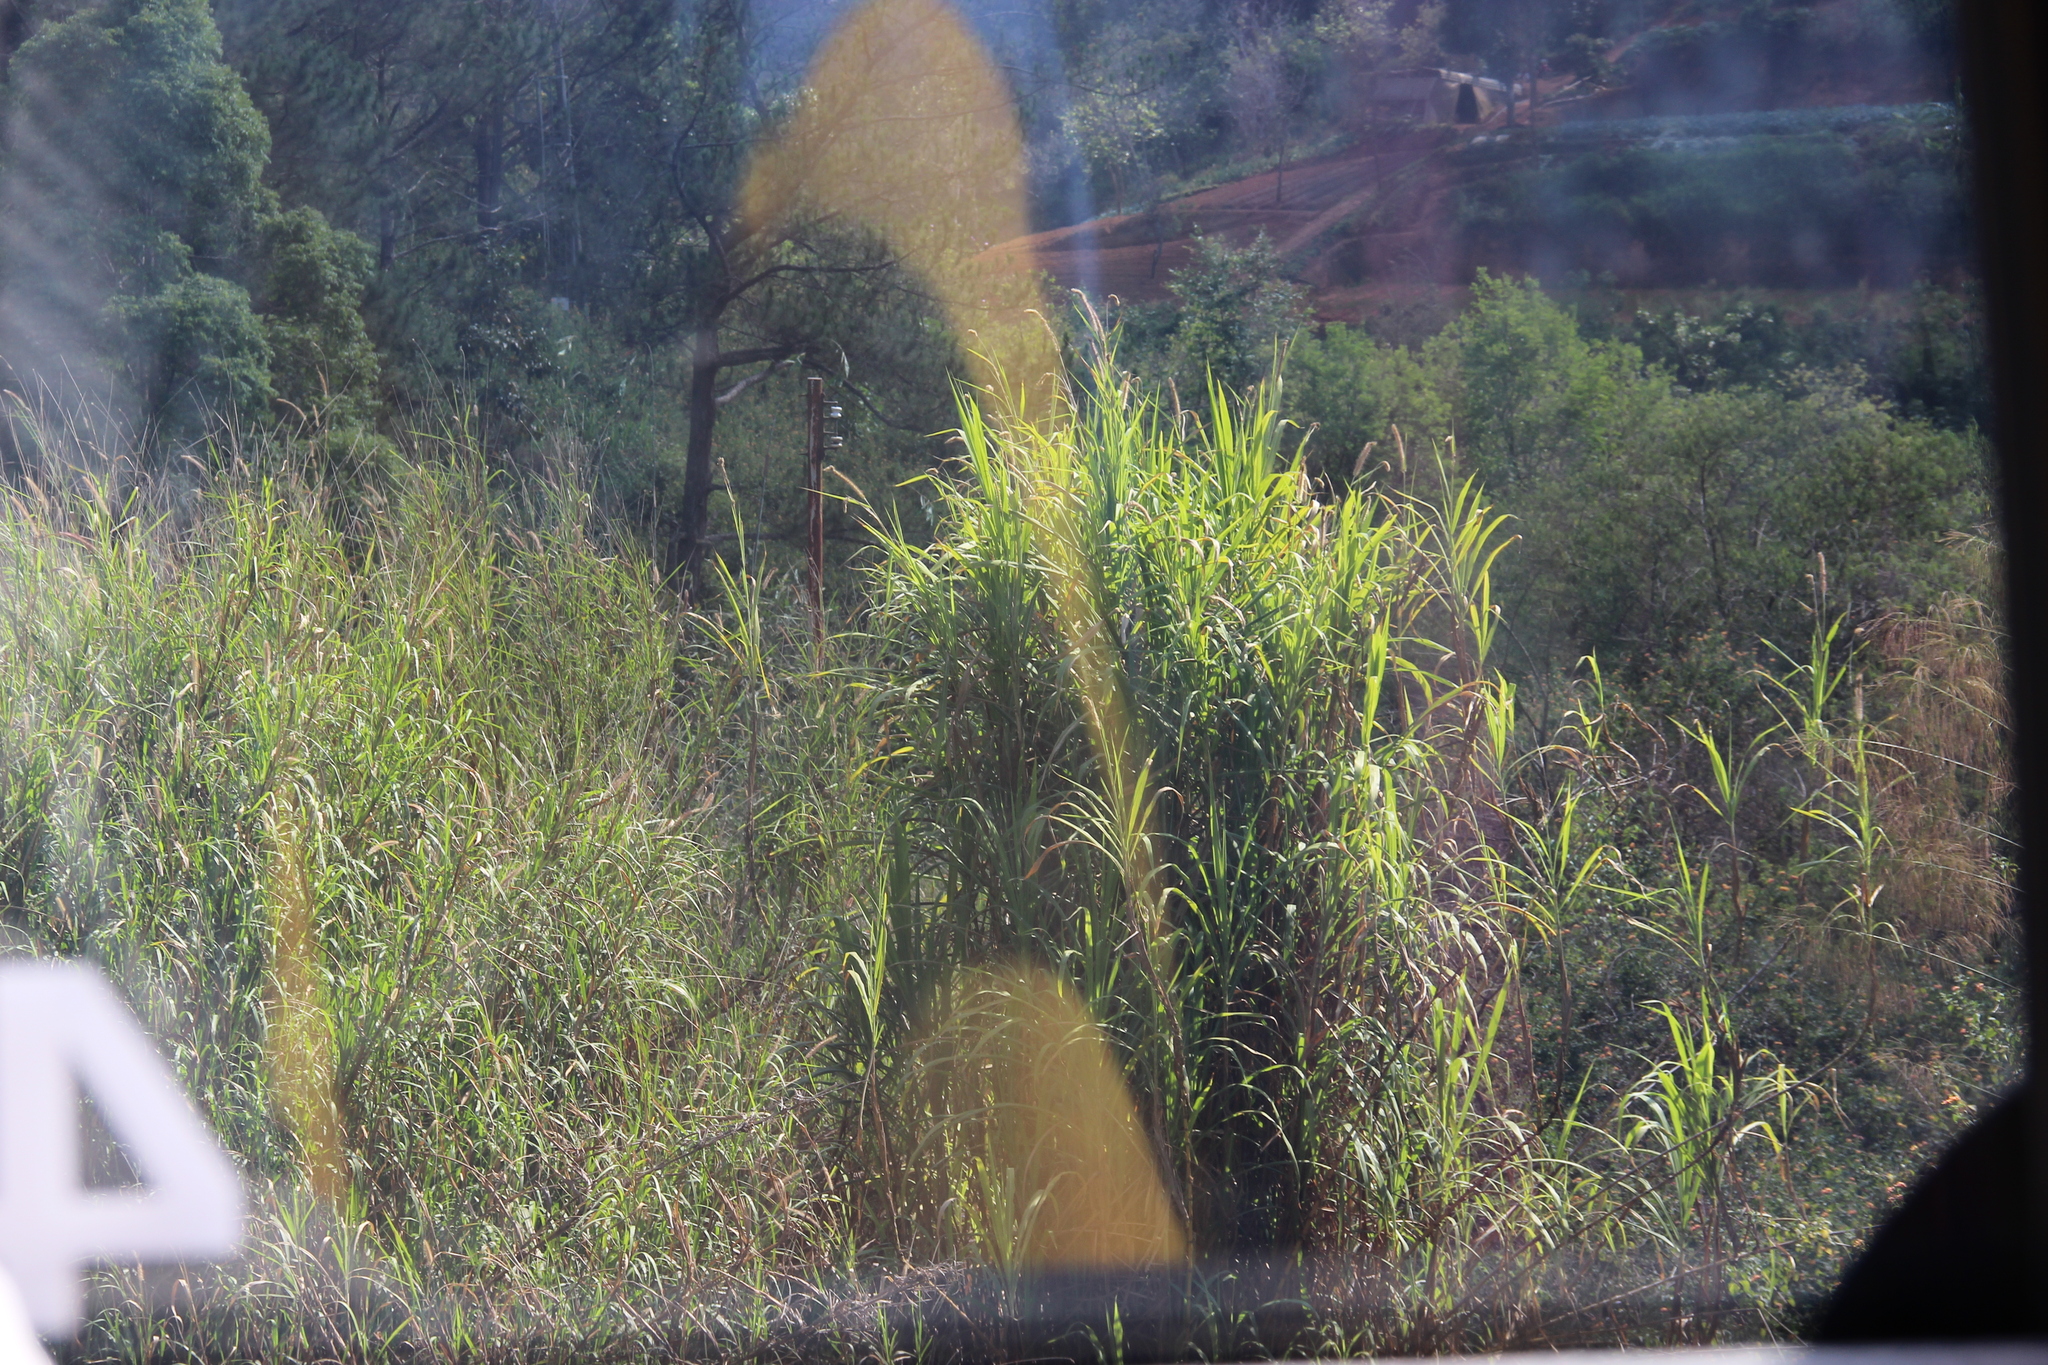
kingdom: Plantae
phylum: Tracheophyta
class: Liliopsida
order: Poales
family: Poaceae
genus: Cenchrus
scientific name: Cenchrus purpureus
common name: Elephant grass
